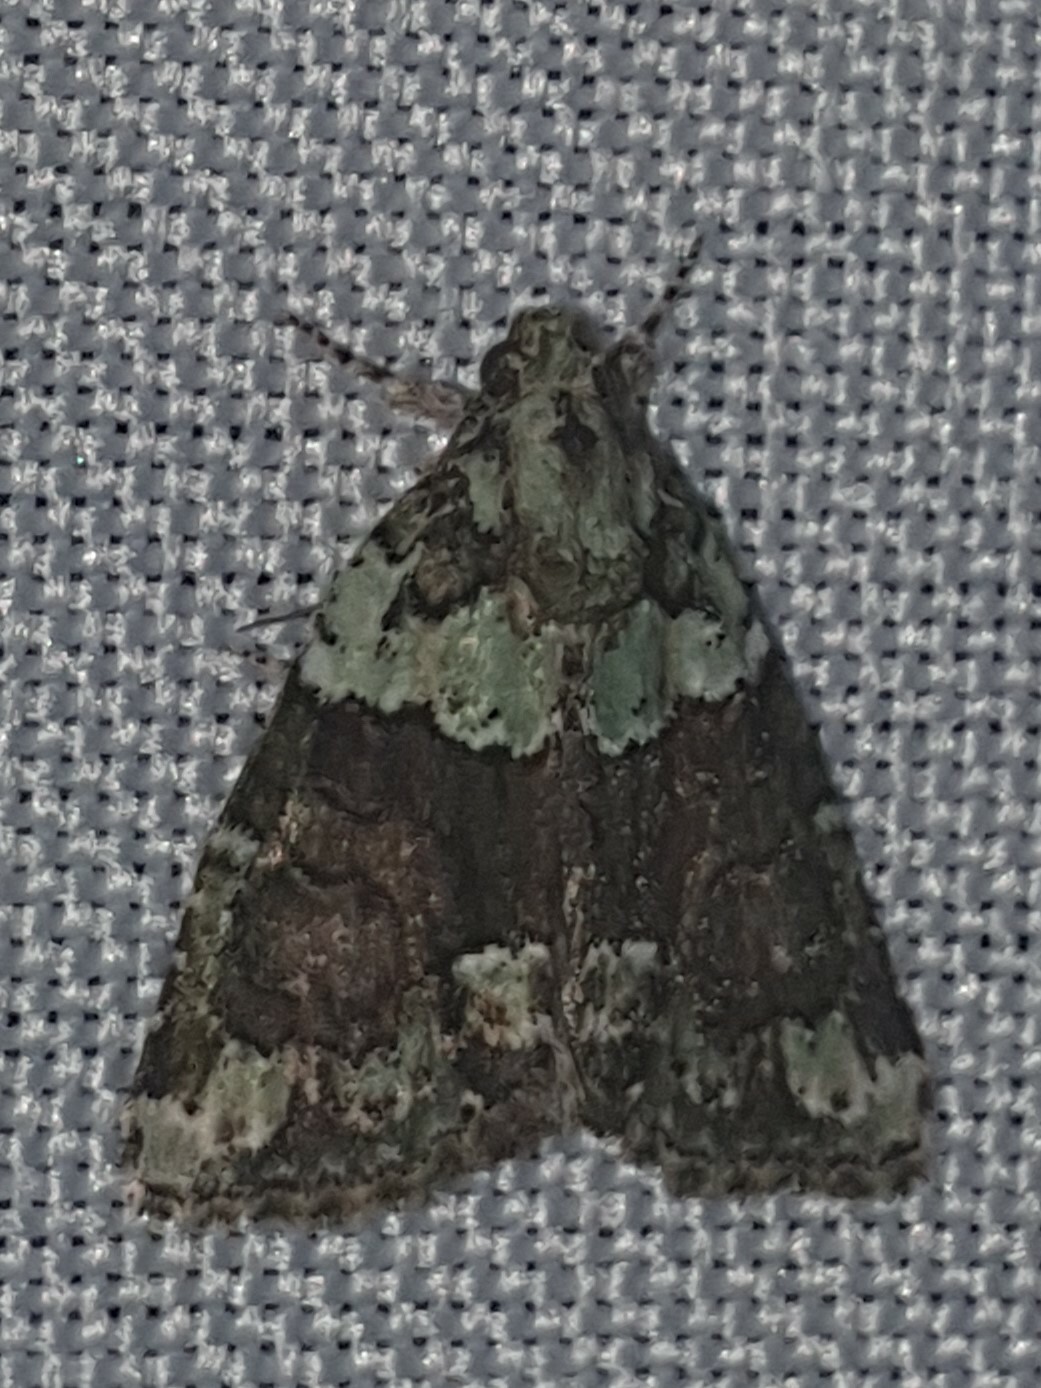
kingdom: Animalia
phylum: Arthropoda
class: Insecta
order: Lepidoptera
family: Noctuidae
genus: Cryphia
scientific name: Cryphia algae
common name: Tree-lichen beauty
